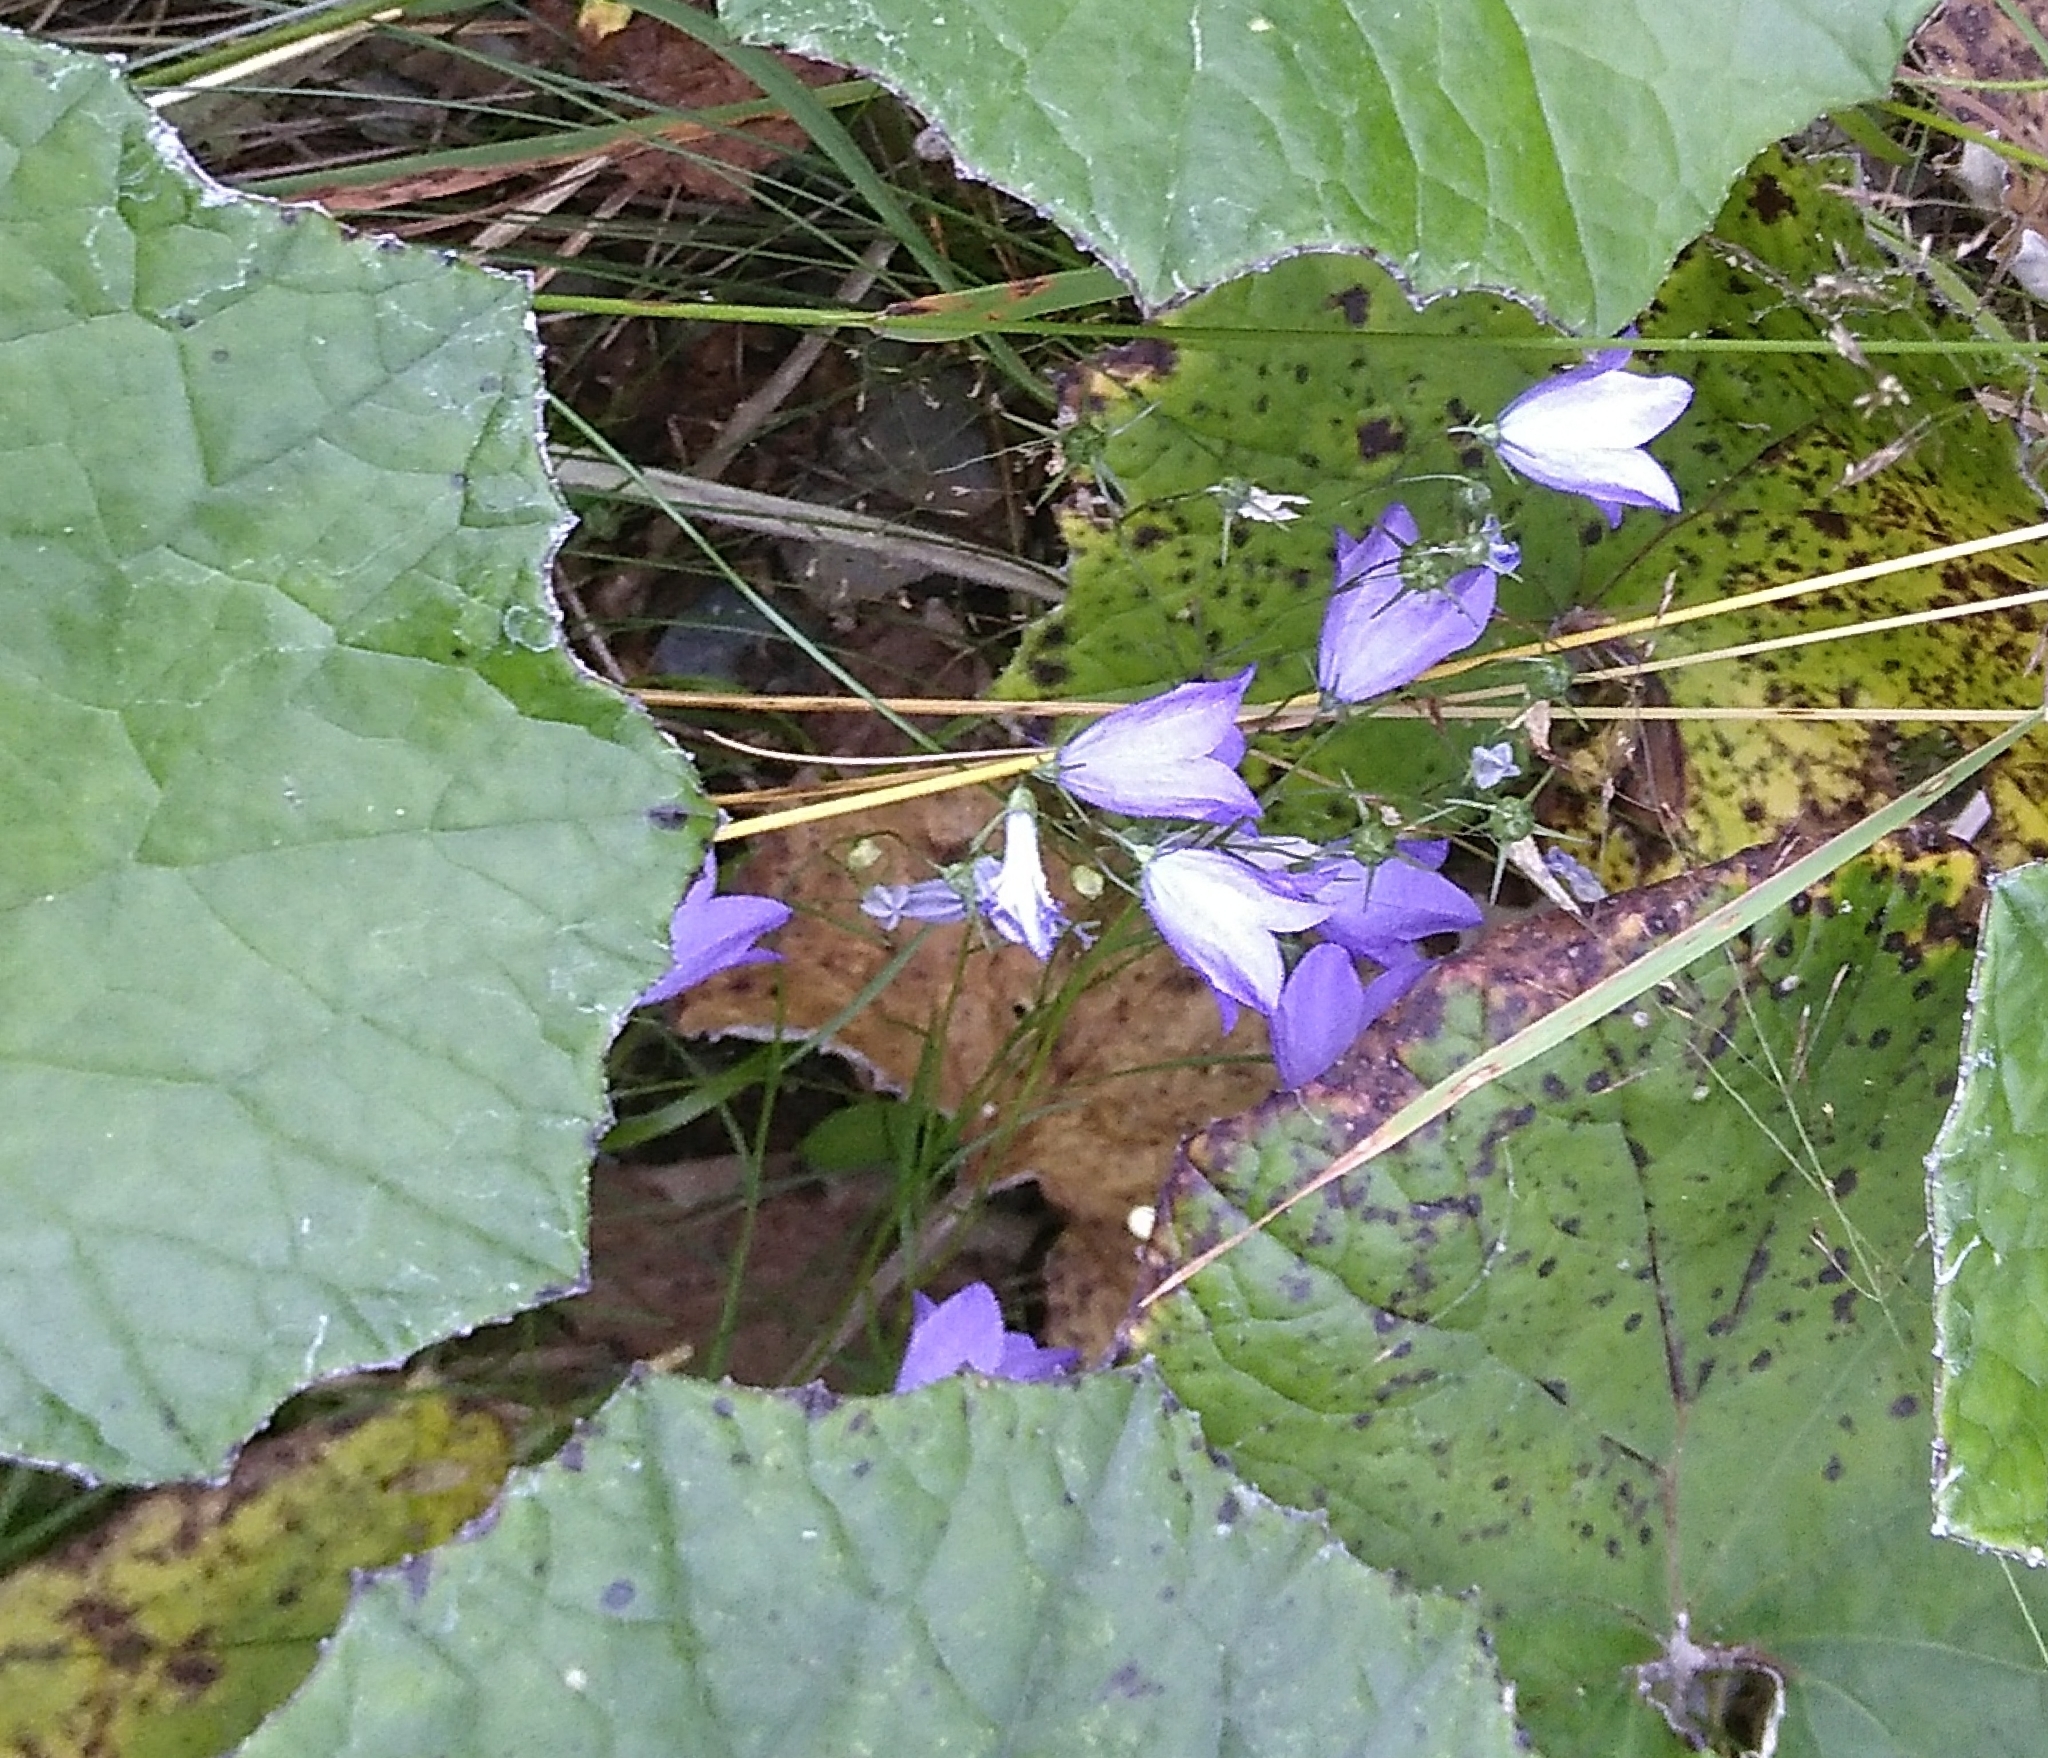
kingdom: Plantae
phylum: Tracheophyta
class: Magnoliopsida
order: Asterales
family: Campanulaceae
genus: Campanula
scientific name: Campanula rotundifolia
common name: Harebell
